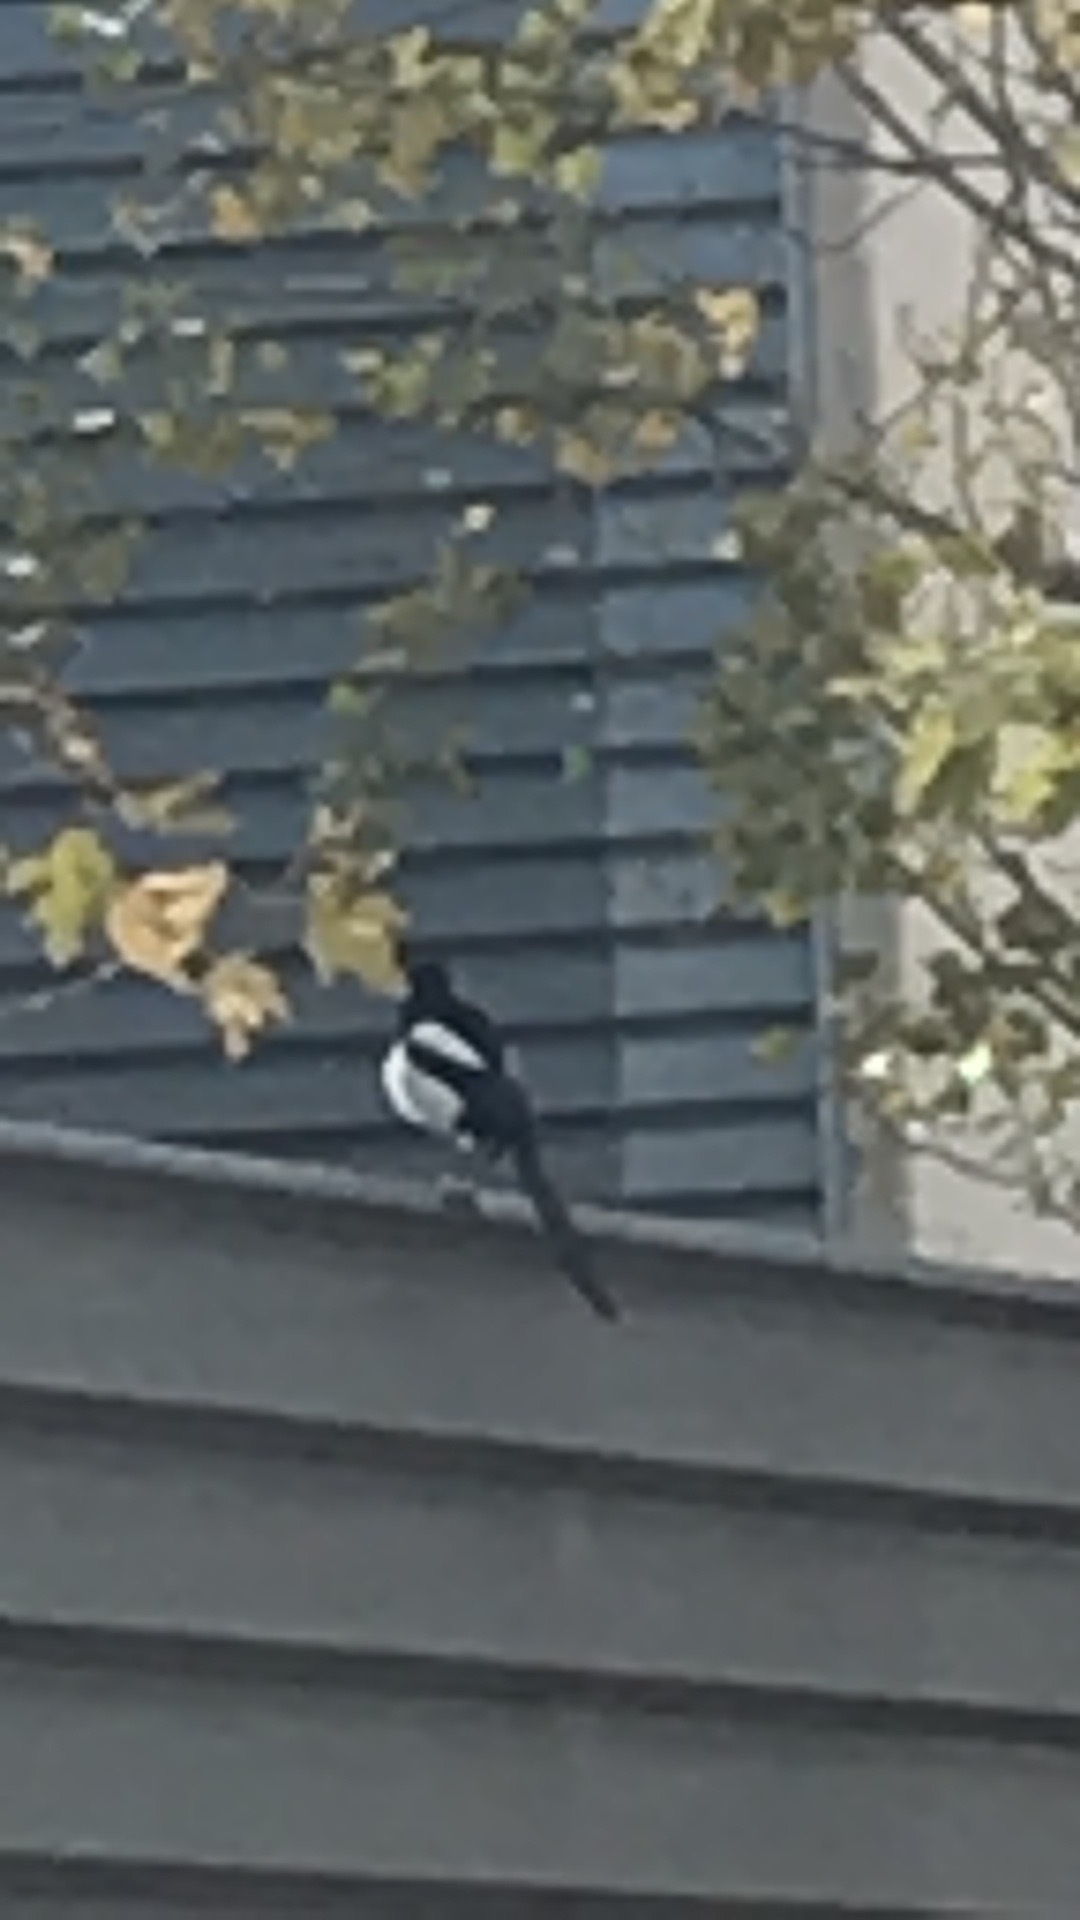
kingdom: Animalia
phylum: Chordata
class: Aves
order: Passeriformes
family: Corvidae
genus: Pica
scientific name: Pica pica
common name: Eurasian magpie
